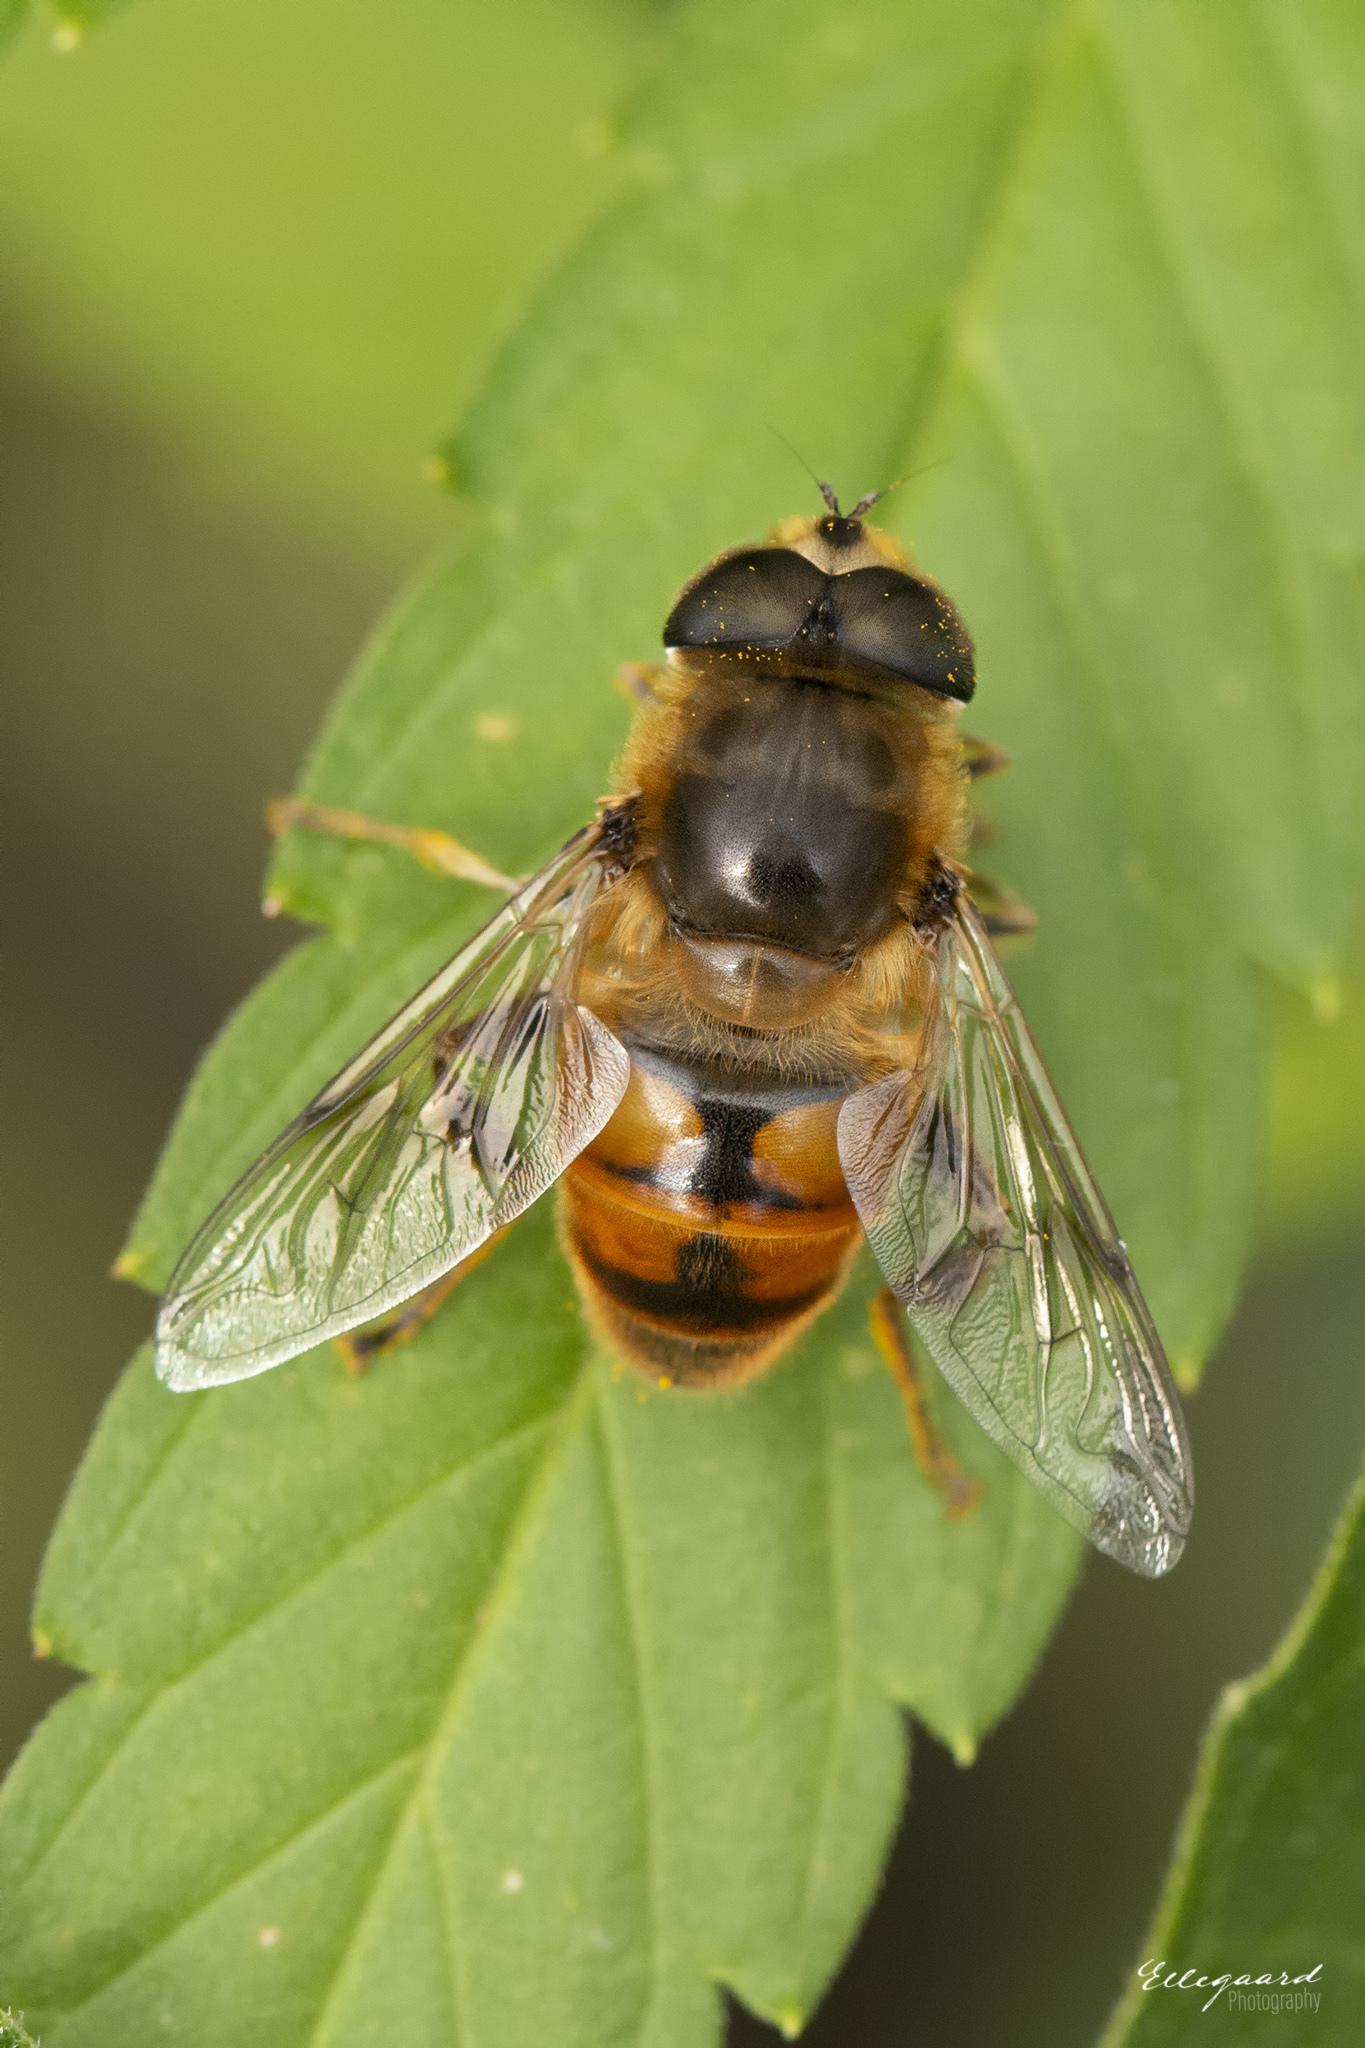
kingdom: Animalia
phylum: Arthropoda
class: Insecta
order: Diptera
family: Syrphidae
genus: Eristalis
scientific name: Eristalis tenax
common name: Drone fly
